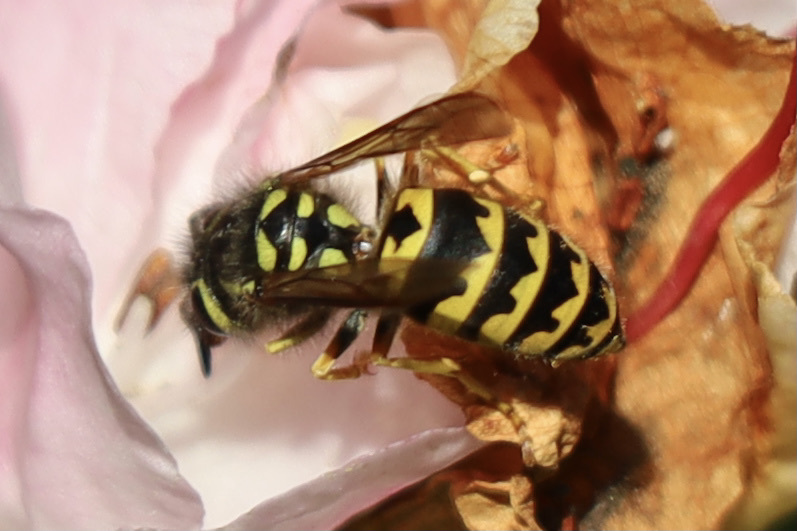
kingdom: Animalia
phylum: Arthropoda
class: Insecta
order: Hymenoptera
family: Vespidae
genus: Vespula
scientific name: Vespula pensylvanica
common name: Western yellowjacket
